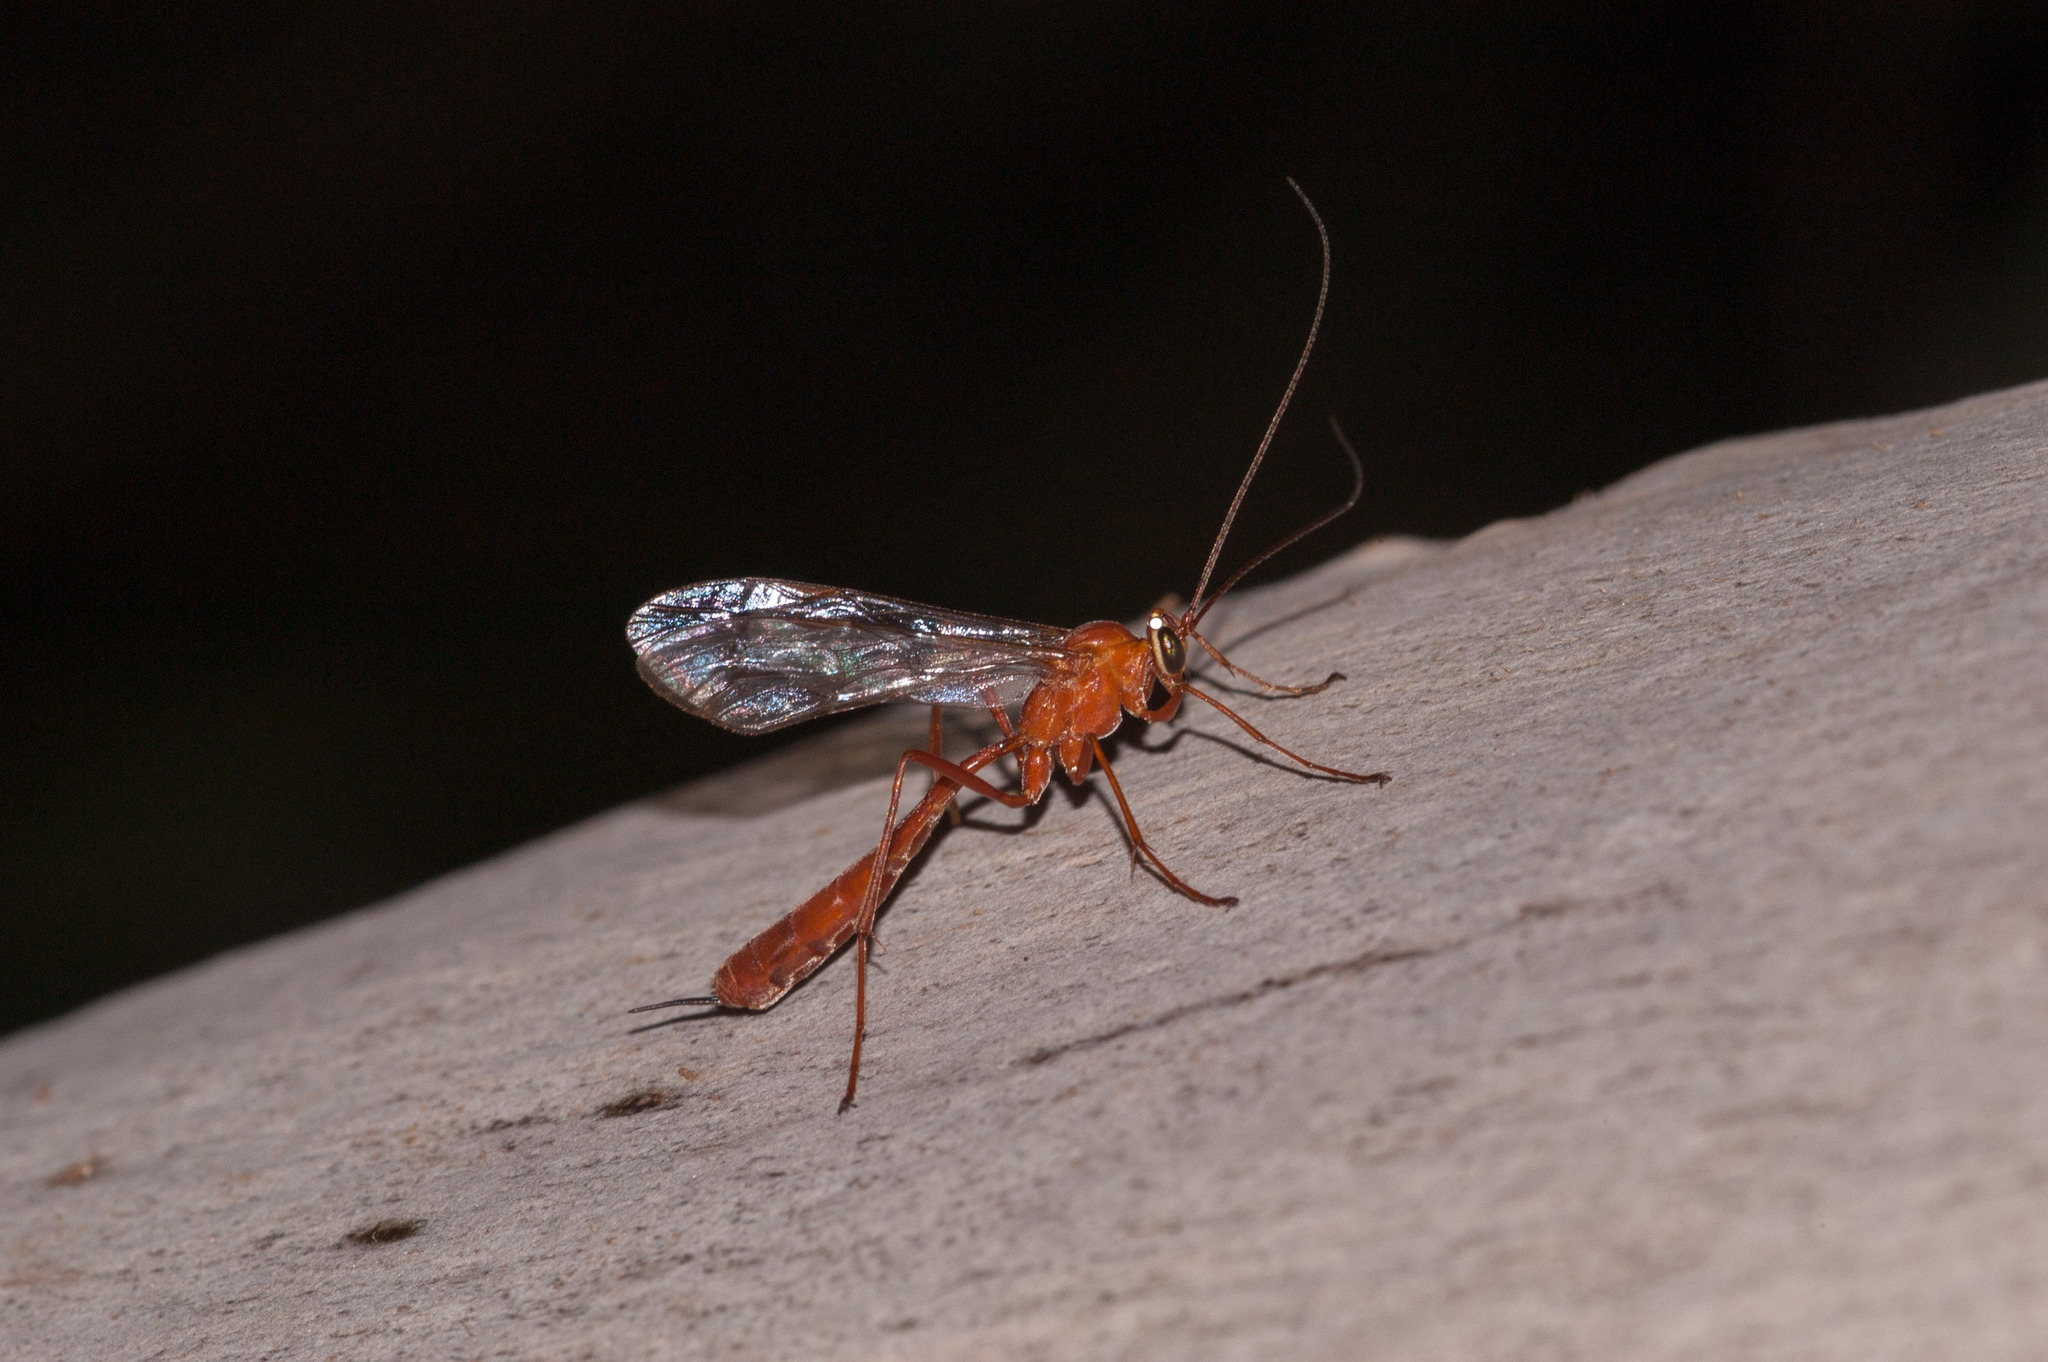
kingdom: Animalia
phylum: Arthropoda
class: Insecta
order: Hymenoptera
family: Ichneumonidae
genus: Netelia
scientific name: Netelia
